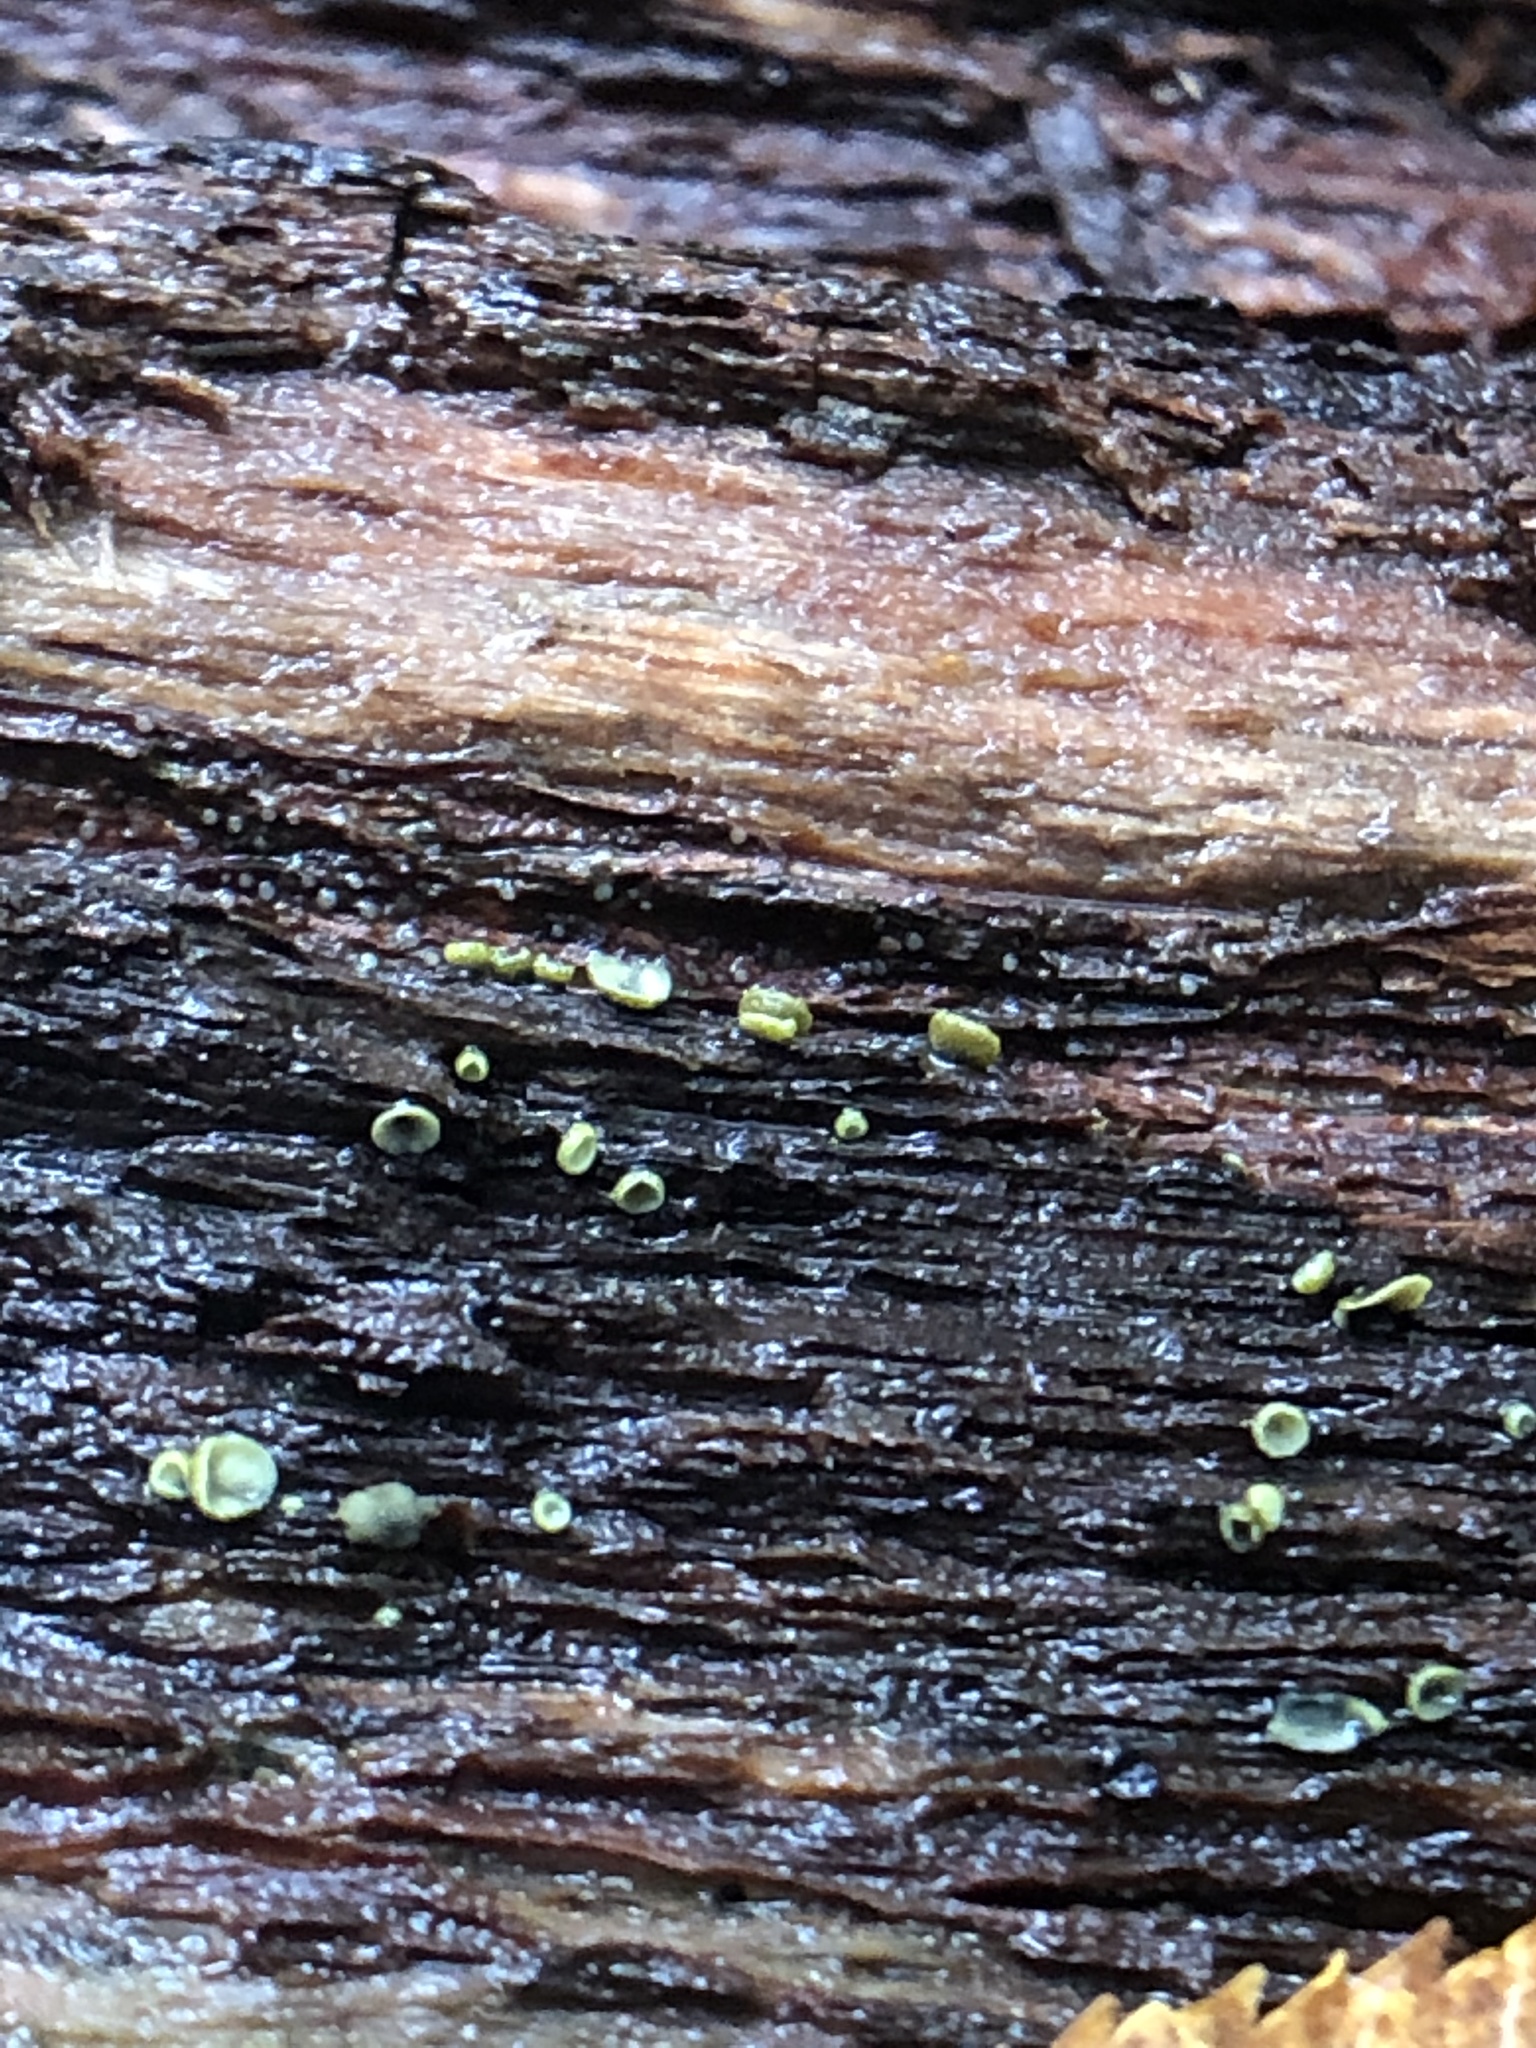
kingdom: Fungi
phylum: Ascomycota
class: Leotiomycetes
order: Helotiales
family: Chlorospleniaceae
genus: Chlorosplenium
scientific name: Chlorosplenium chlora
